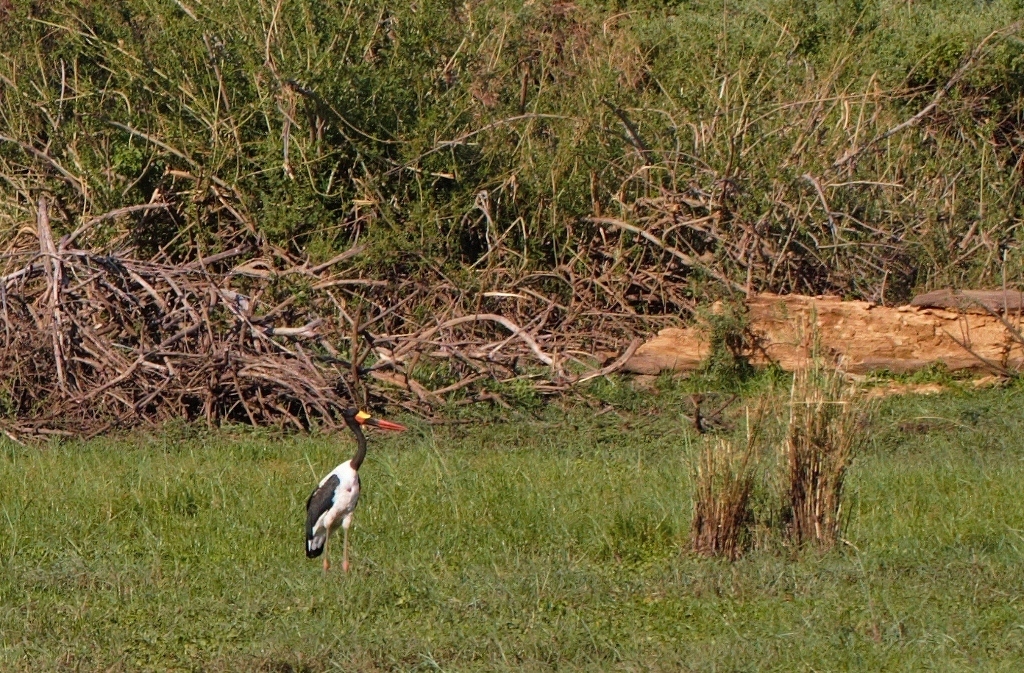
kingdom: Animalia
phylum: Chordata
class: Aves
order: Ciconiiformes
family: Ciconiidae
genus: Ephippiorhynchus
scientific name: Ephippiorhynchus senegalensis
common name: Saddle-billed stork
